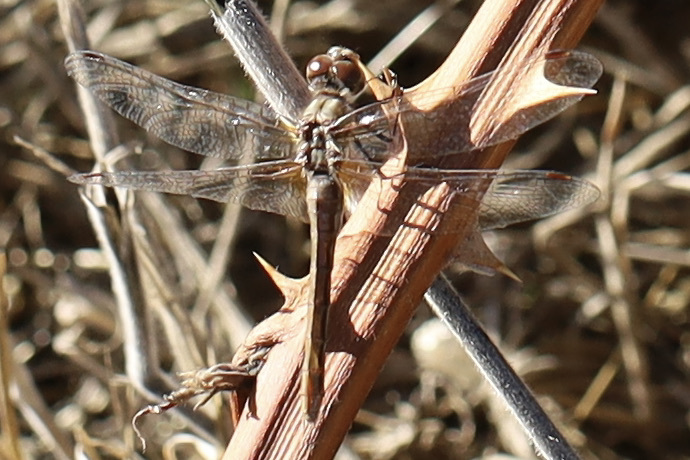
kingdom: Animalia
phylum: Arthropoda
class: Insecta
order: Odonata
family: Libellulidae
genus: Sympetrum
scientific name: Sympetrum pallipes
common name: Striped meadowhawk
